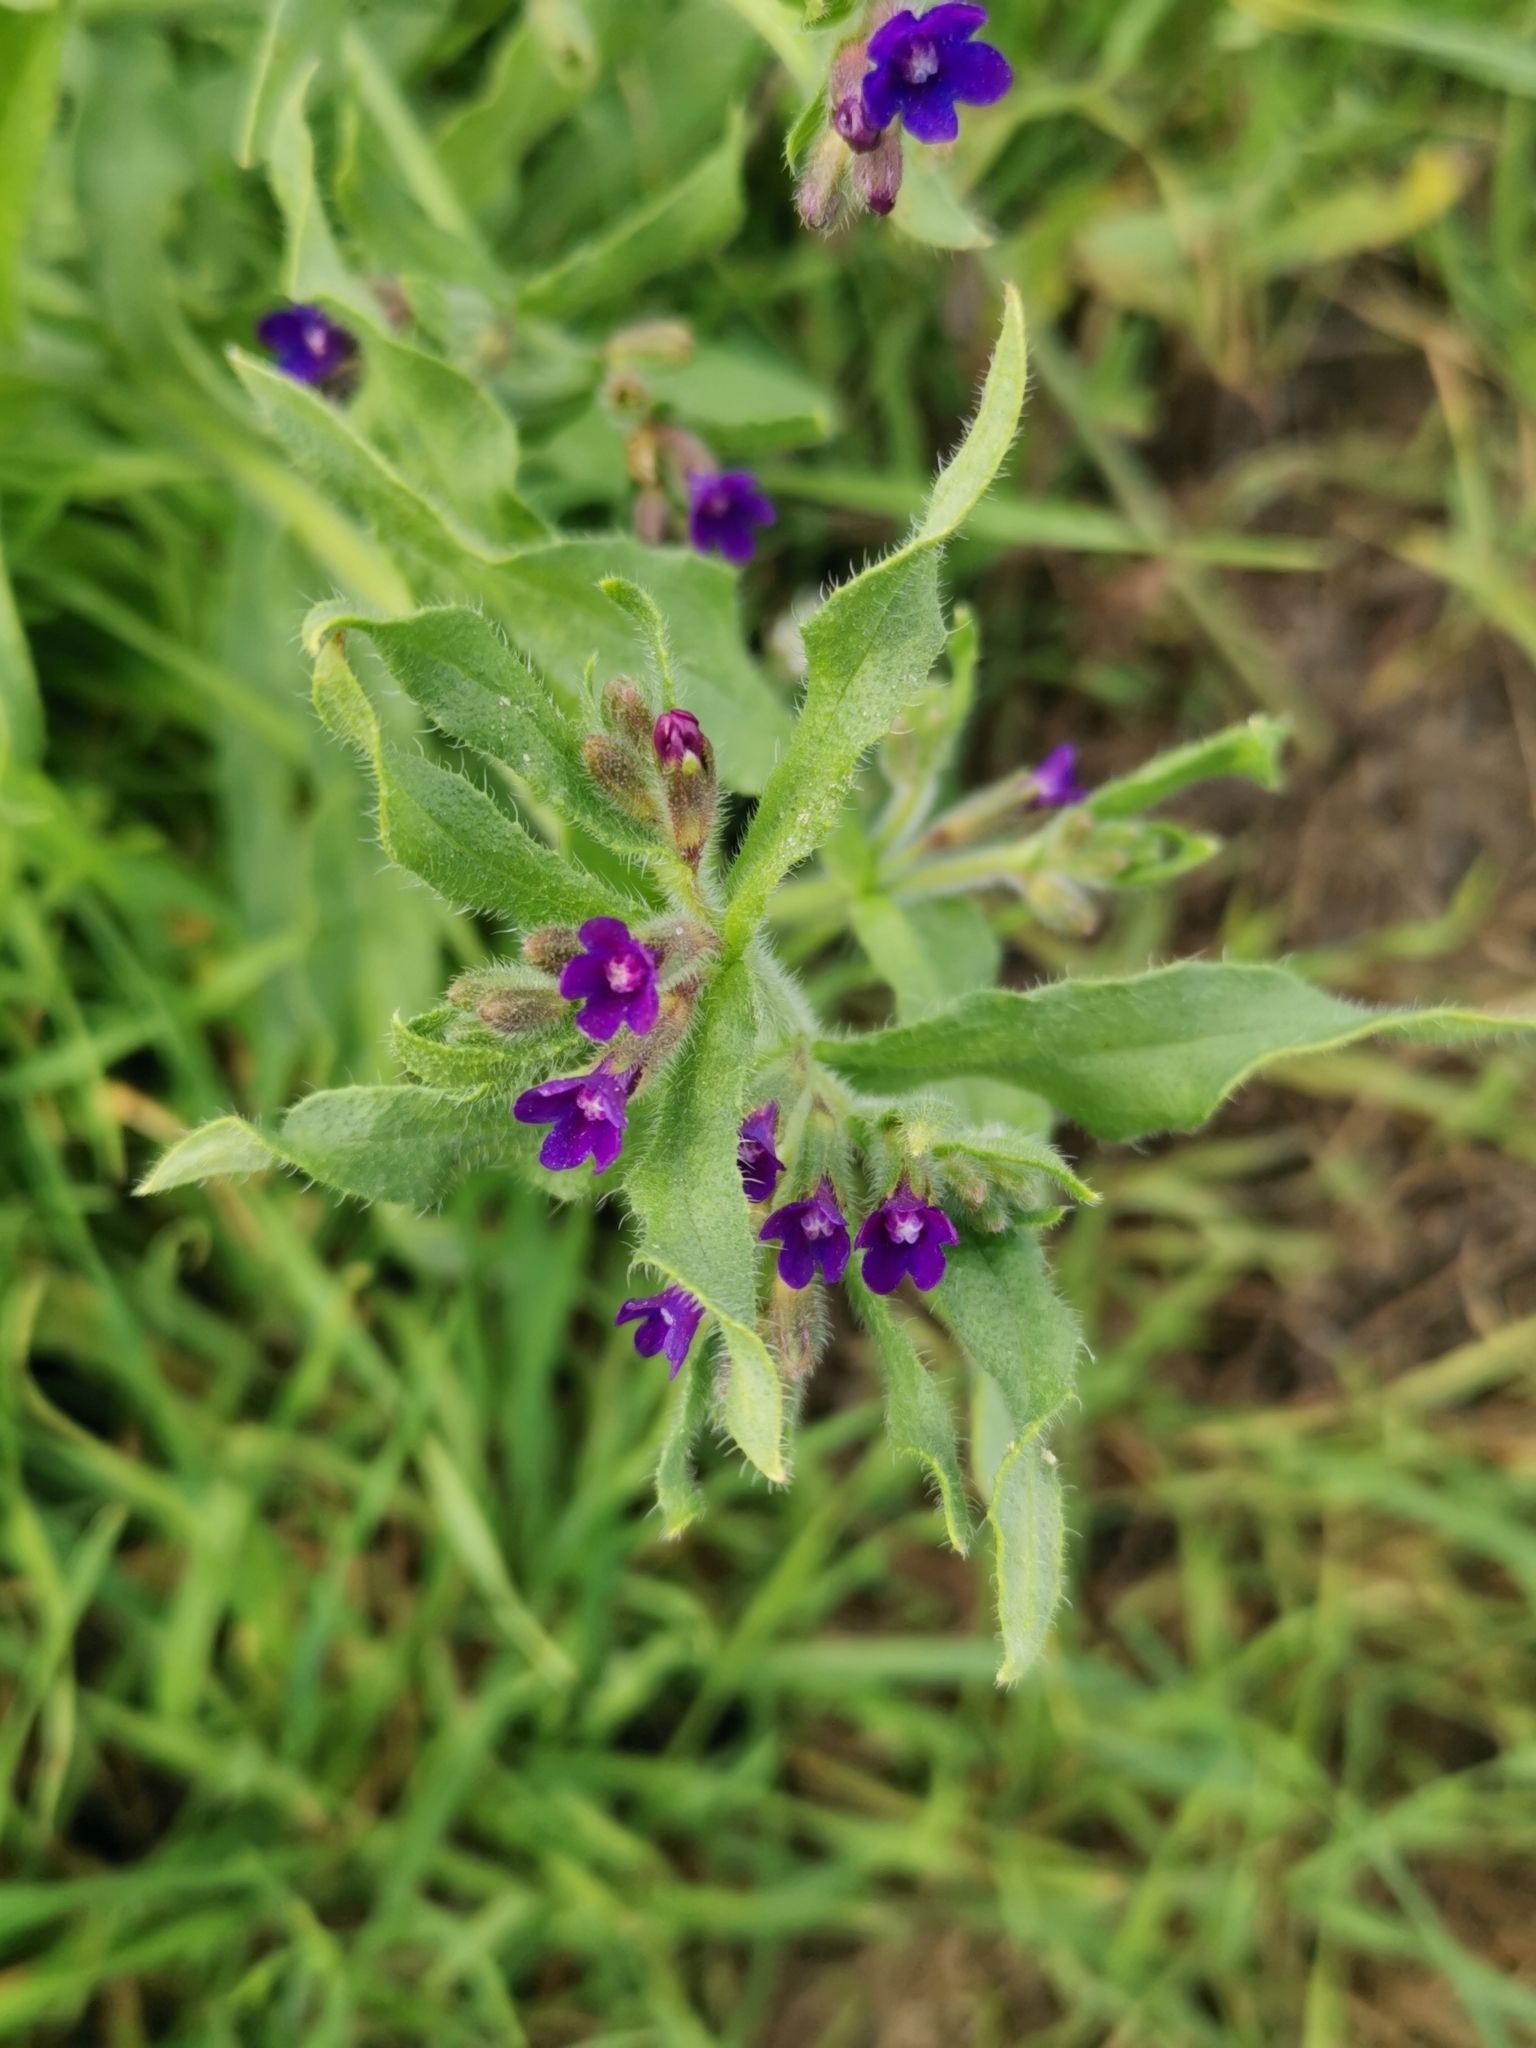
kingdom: Plantae
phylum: Tracheophyta
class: Magnoliopsida
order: Boraginales
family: Boraginaceae
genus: Anchusa
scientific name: Anchusa officinalis
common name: Alkanet
